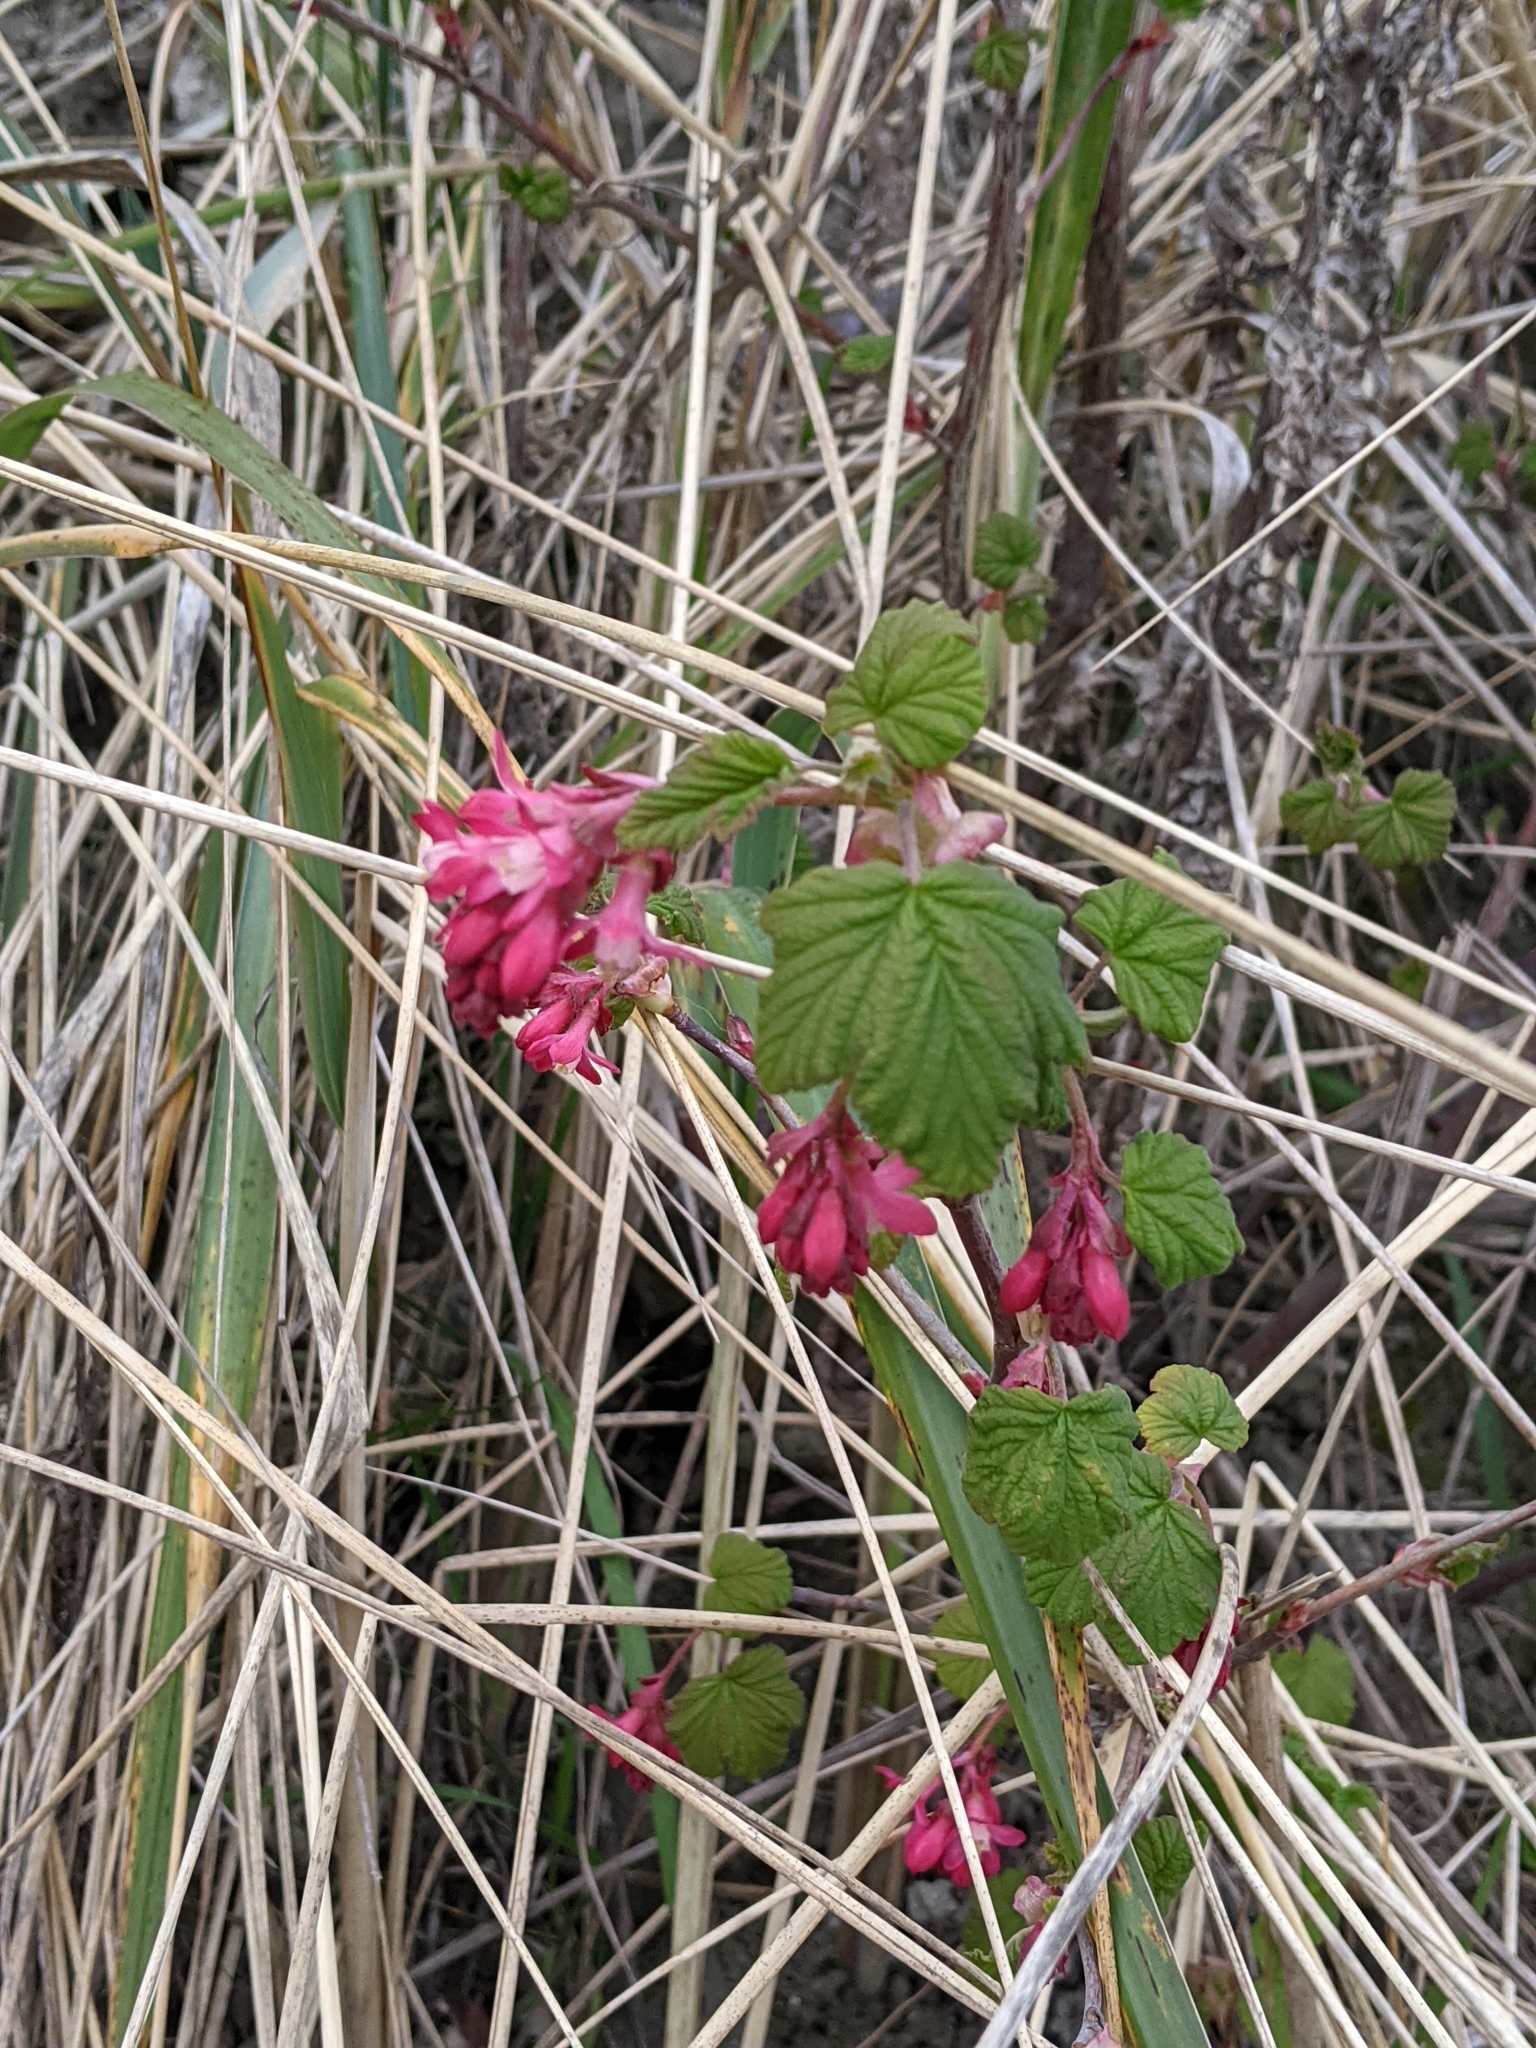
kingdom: Plantae
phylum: Tracheophyta
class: Magnoliopsida
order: Saxifragales
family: Grossulariaceae
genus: Ribes
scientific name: Ribes sanguineum
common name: Flowering currant
